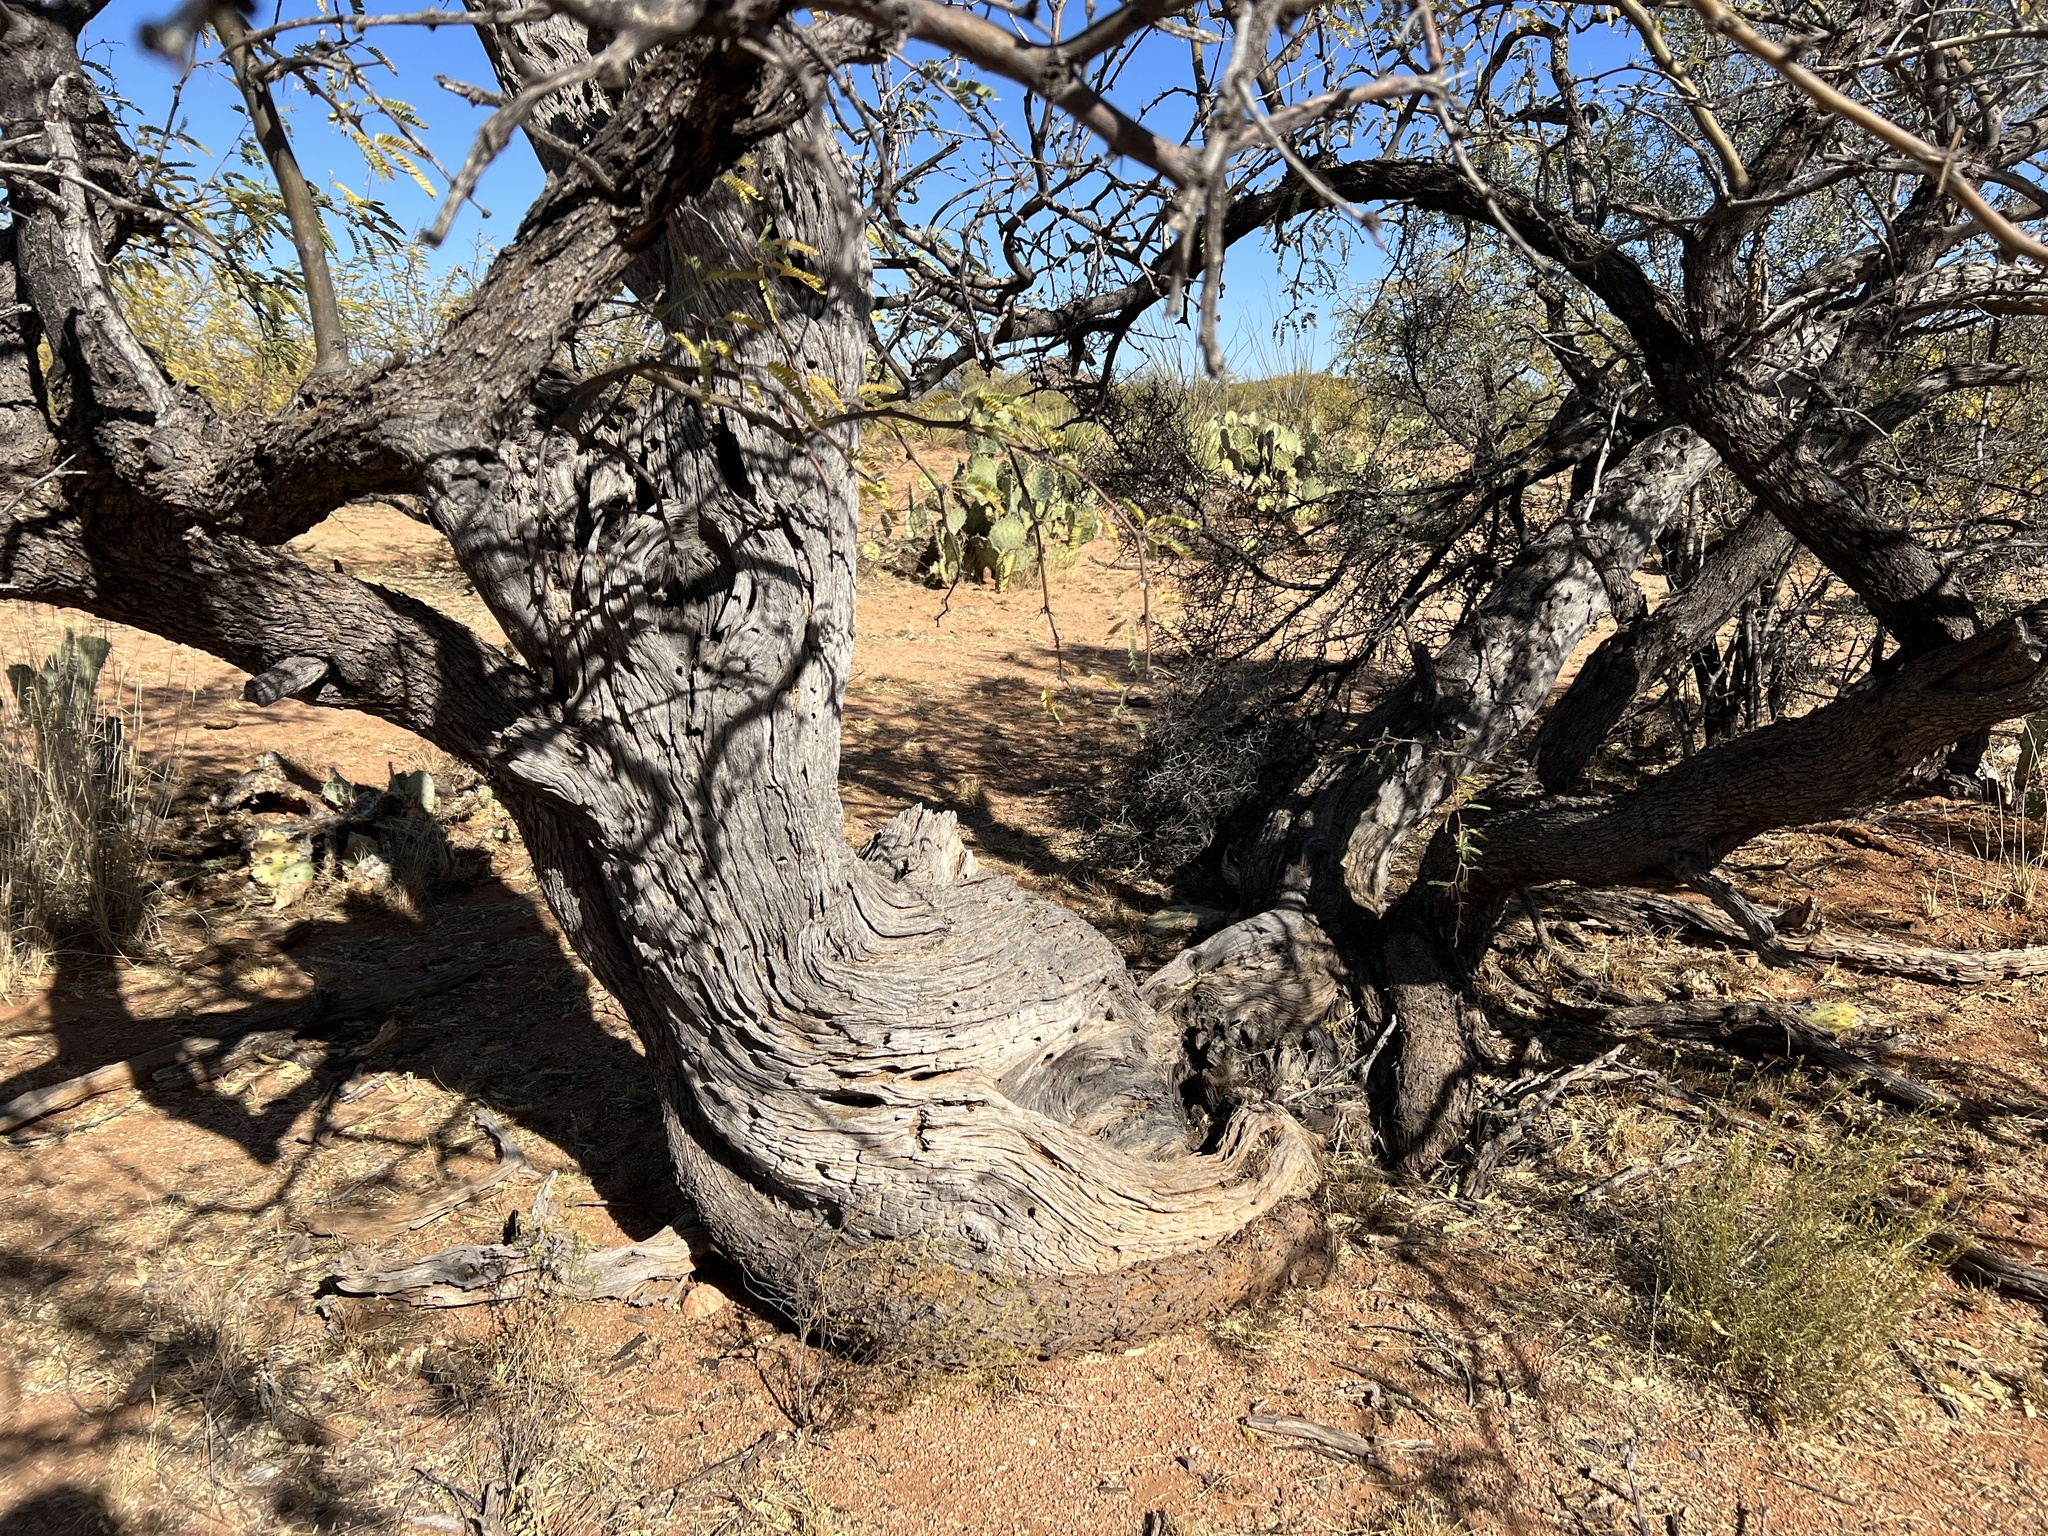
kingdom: Plantae
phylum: Tracheophyta
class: Magnoliopsida
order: Fabales
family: Fabaceae
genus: Prosopis
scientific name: Prosopis velutina
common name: Velvet mesquite
